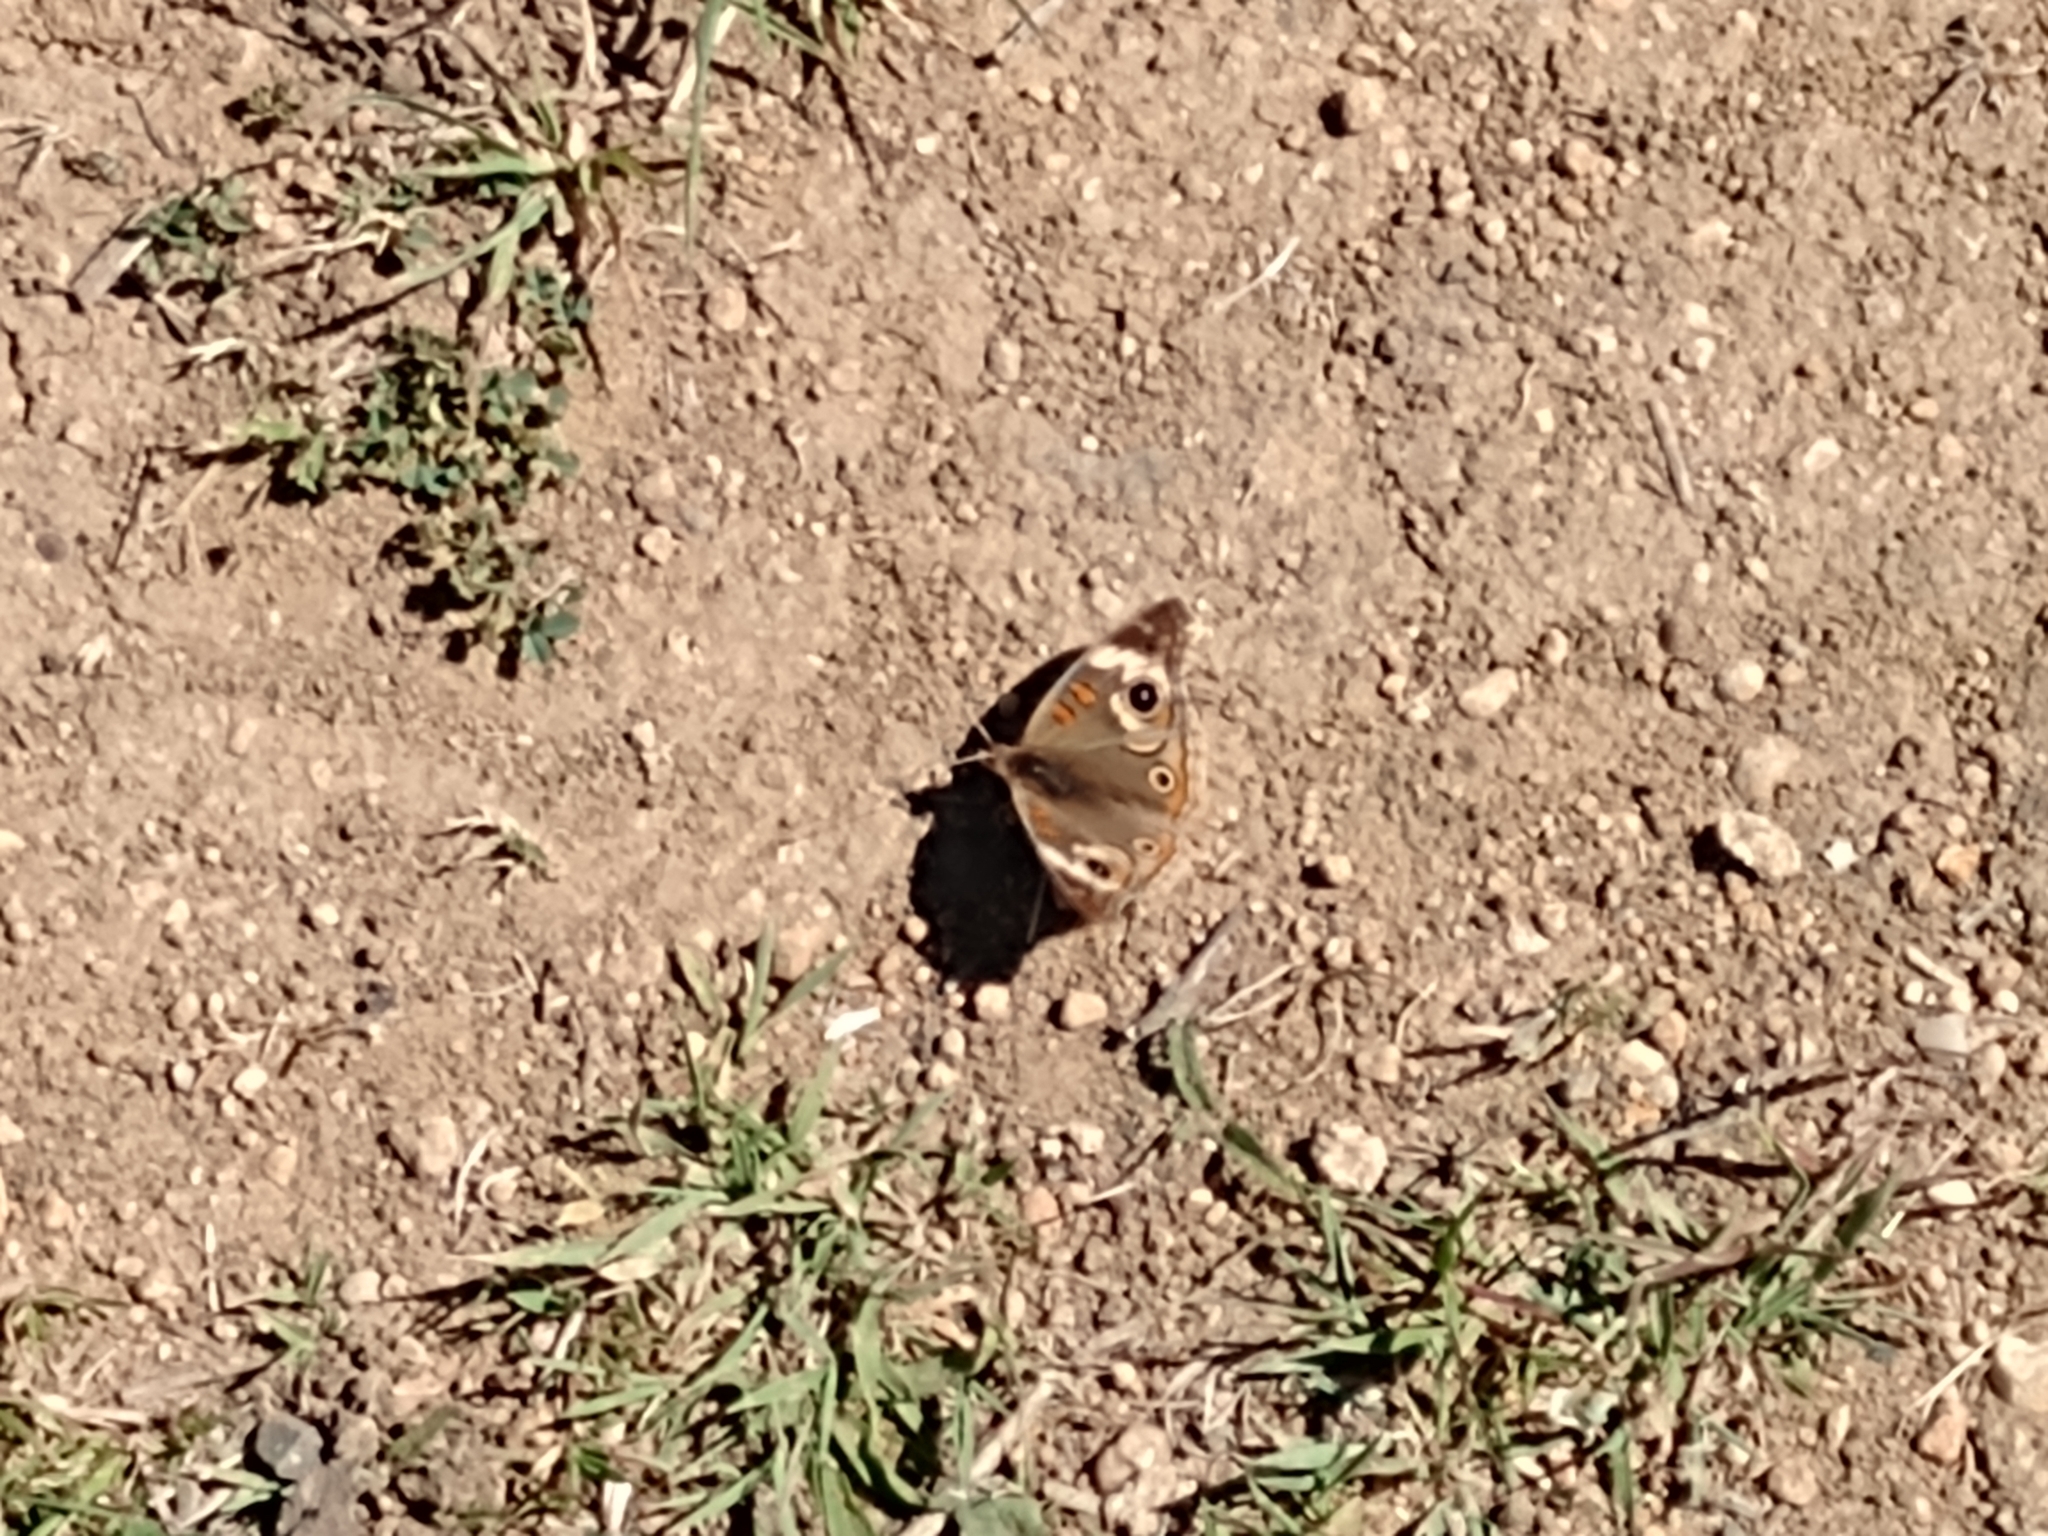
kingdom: Animalia
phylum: Arthropoda
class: Insecta
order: Lepidoptera
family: Nymphalidae
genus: Junonia
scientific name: Junonia grisea
